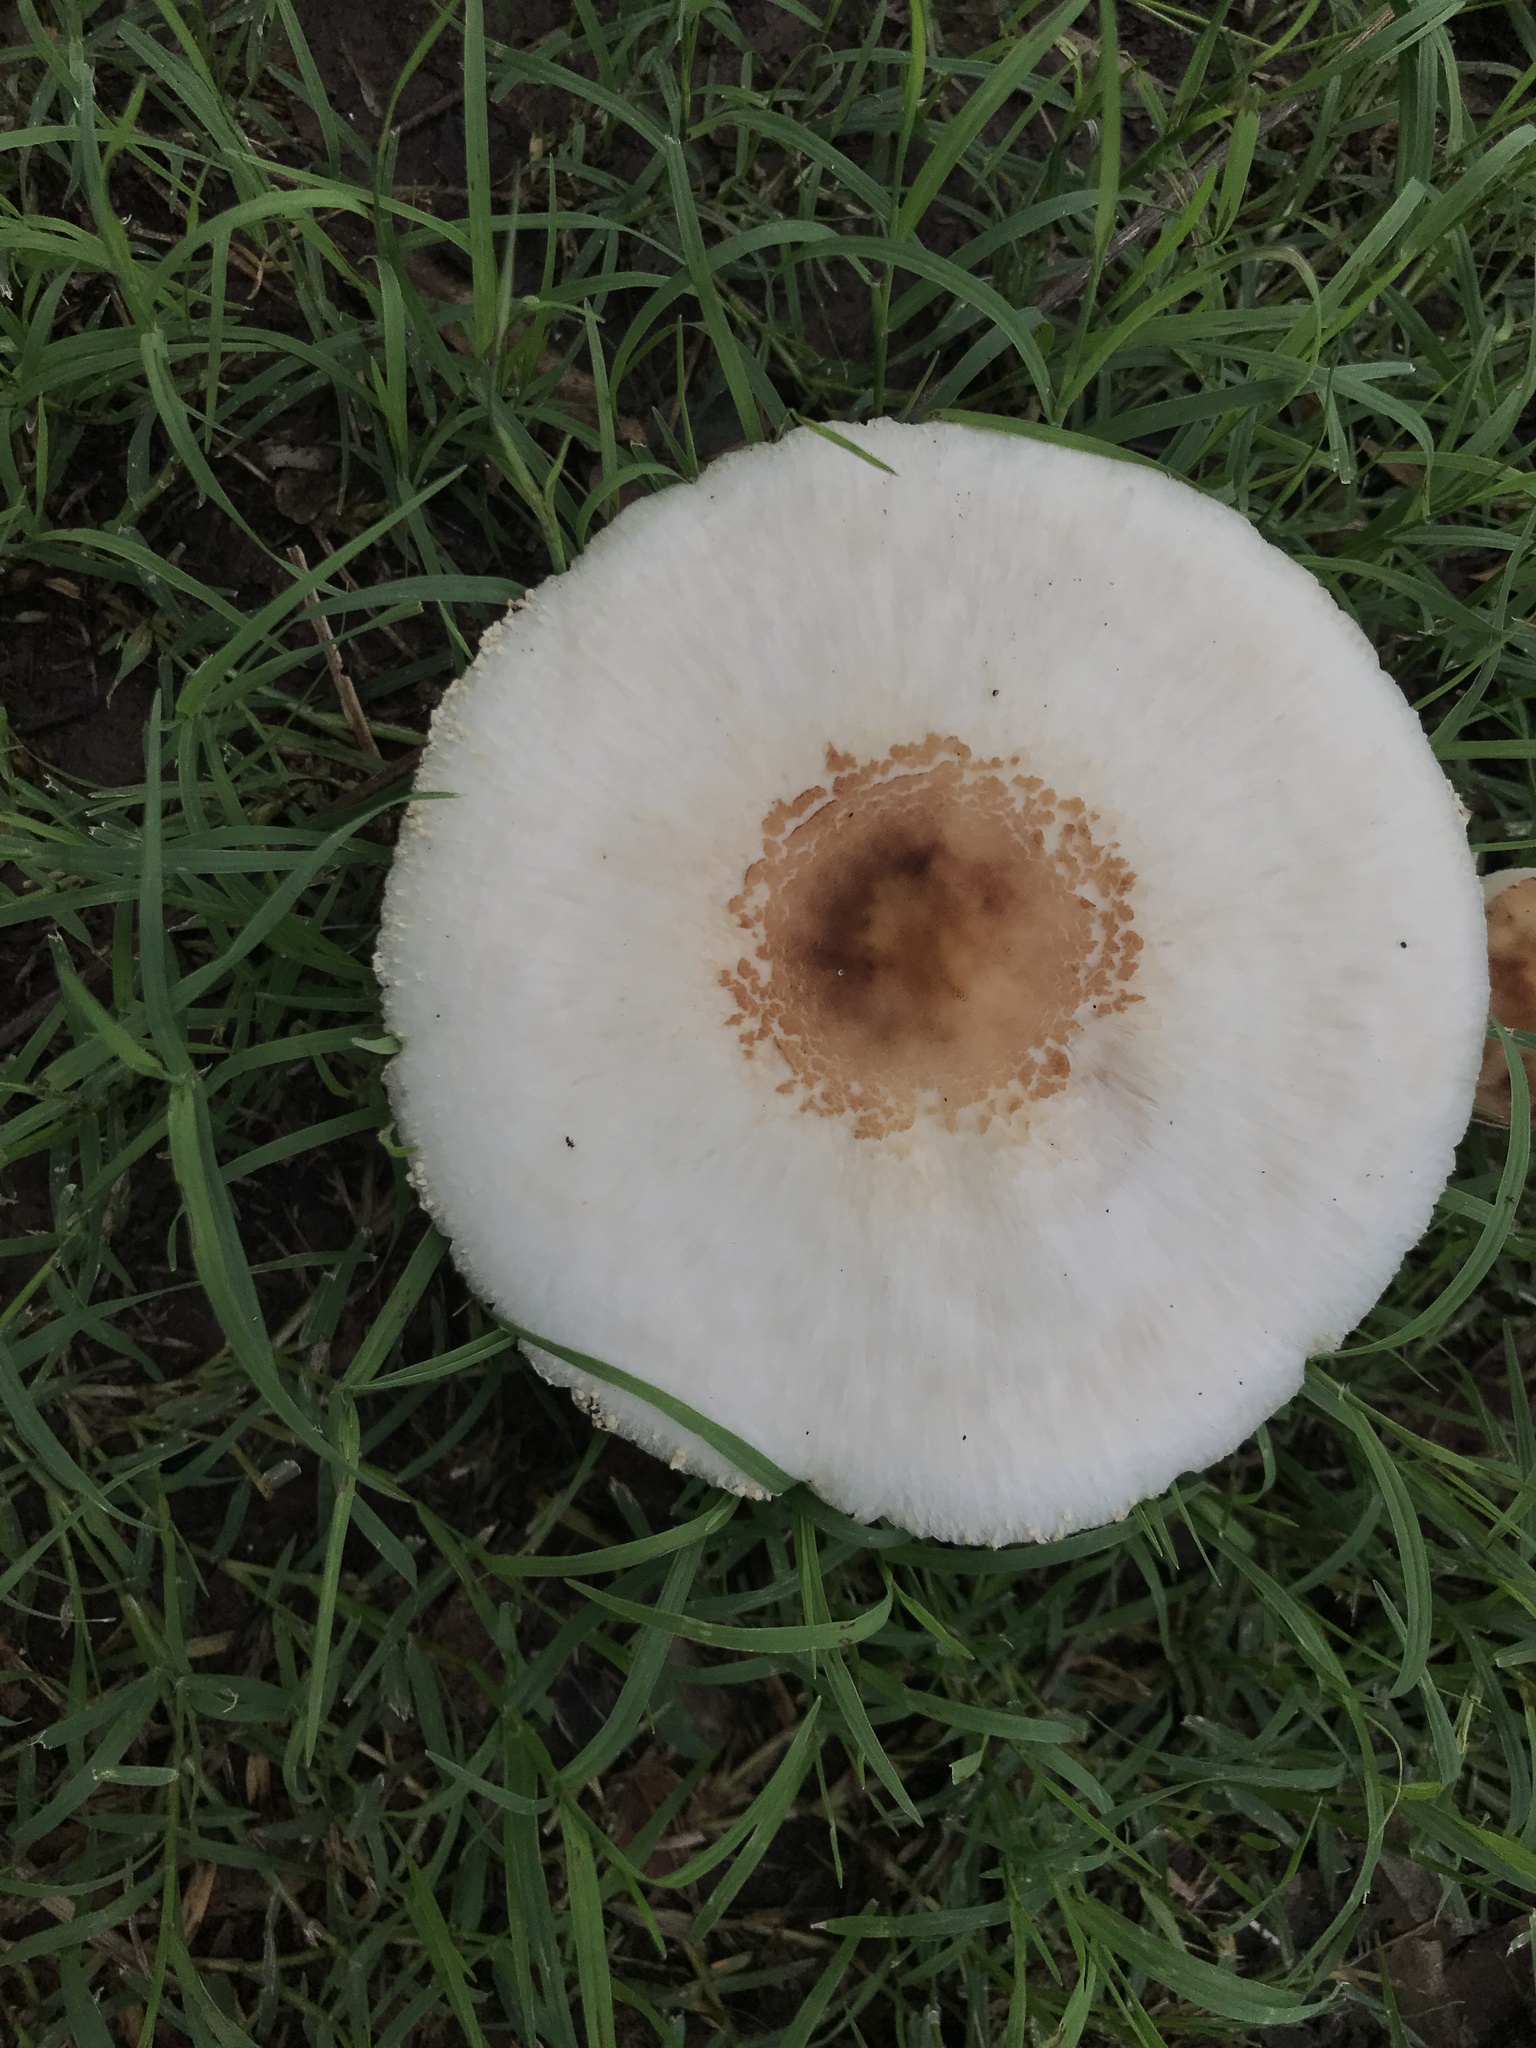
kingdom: Fungi
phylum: Basidiomycota
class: Agaricomycetes
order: Agaricales
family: Agaricaceae
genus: Chlorophyllum
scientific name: Chlorophyllum molybdites
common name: False parasol
